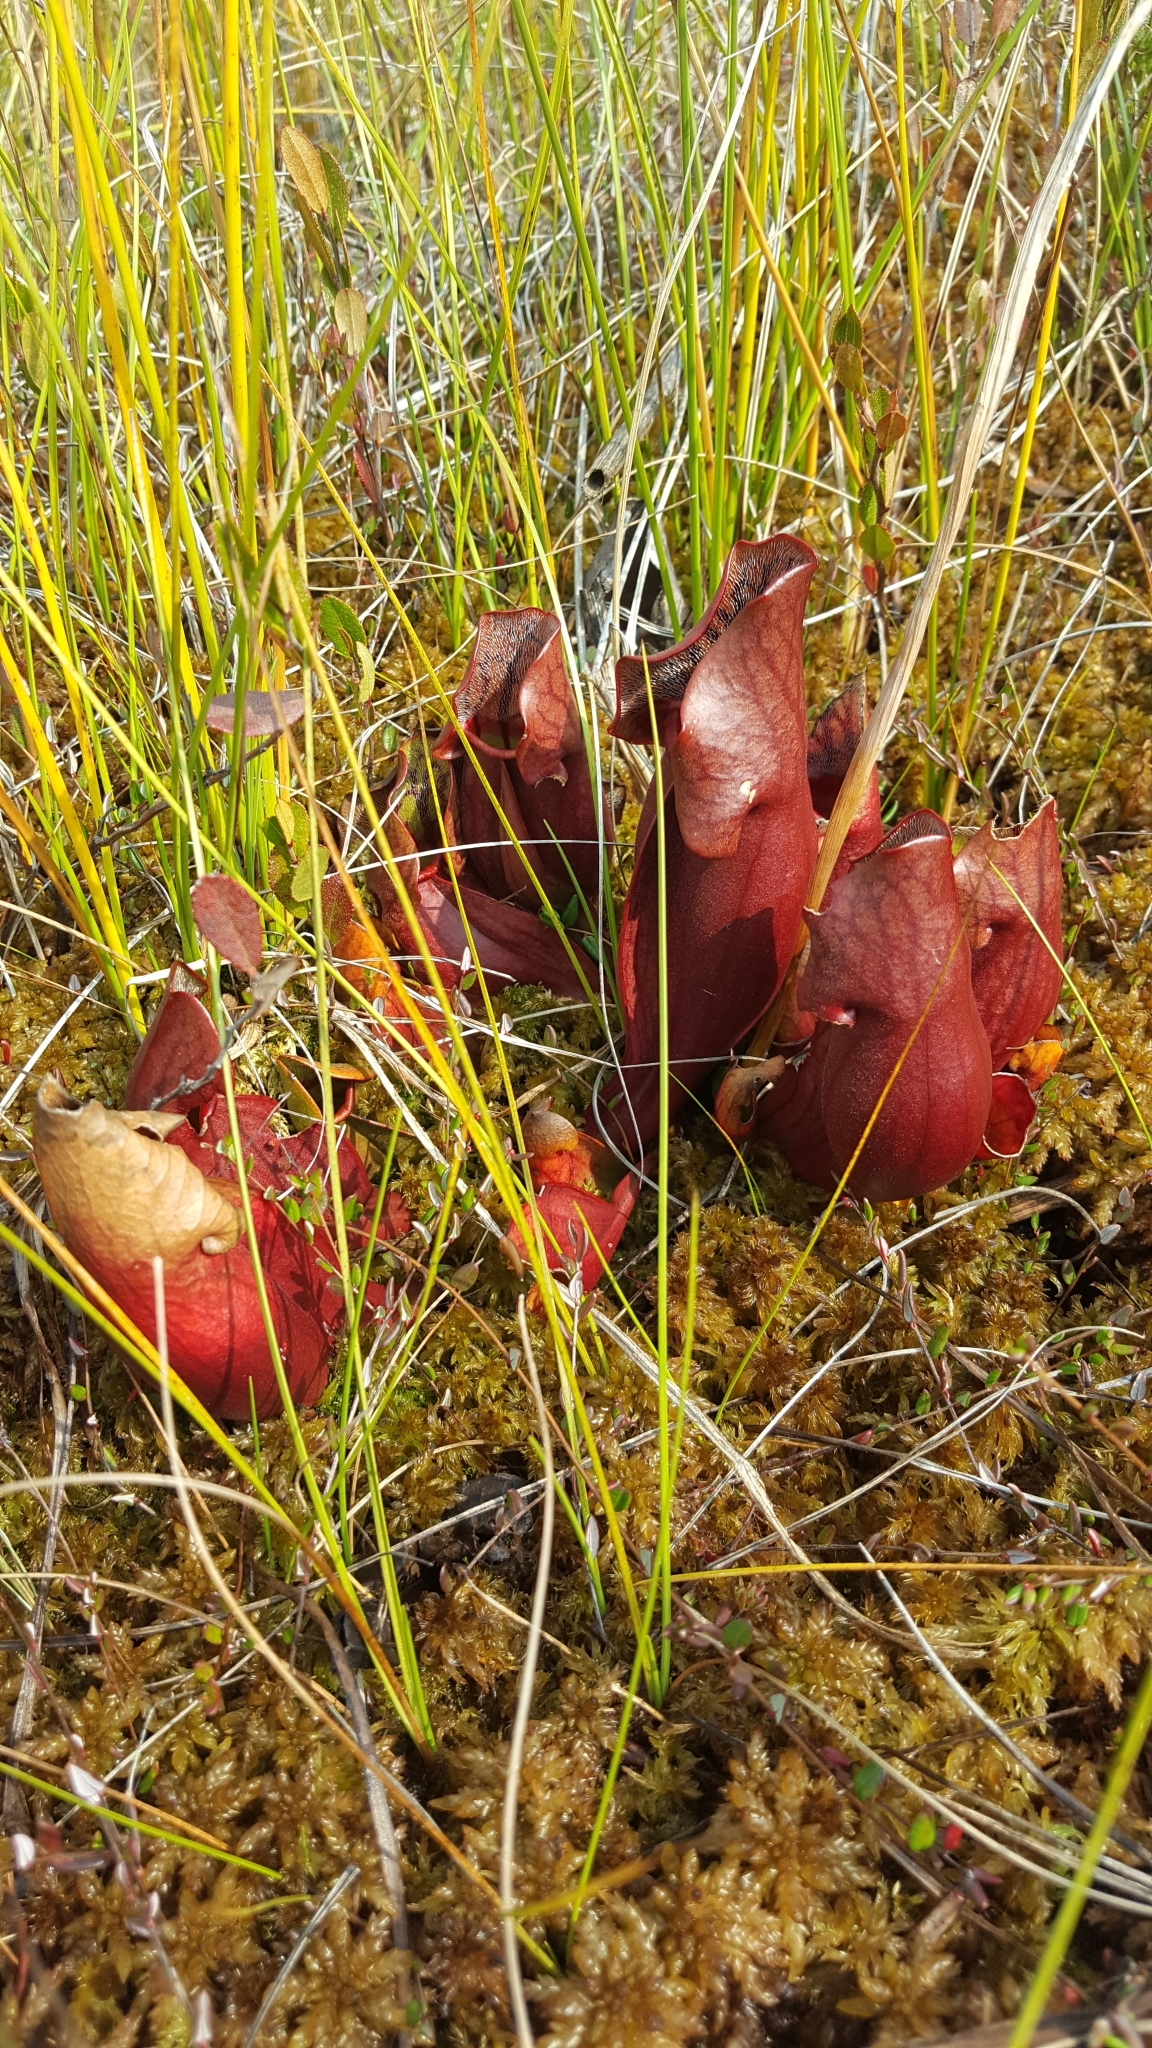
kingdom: Plantae
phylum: Tracheophyta
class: Magnoliopsida
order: Ericales
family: Sarraceniaceae
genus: Sarracenia
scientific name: Sarracenia purpurea
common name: Pitcherplant
